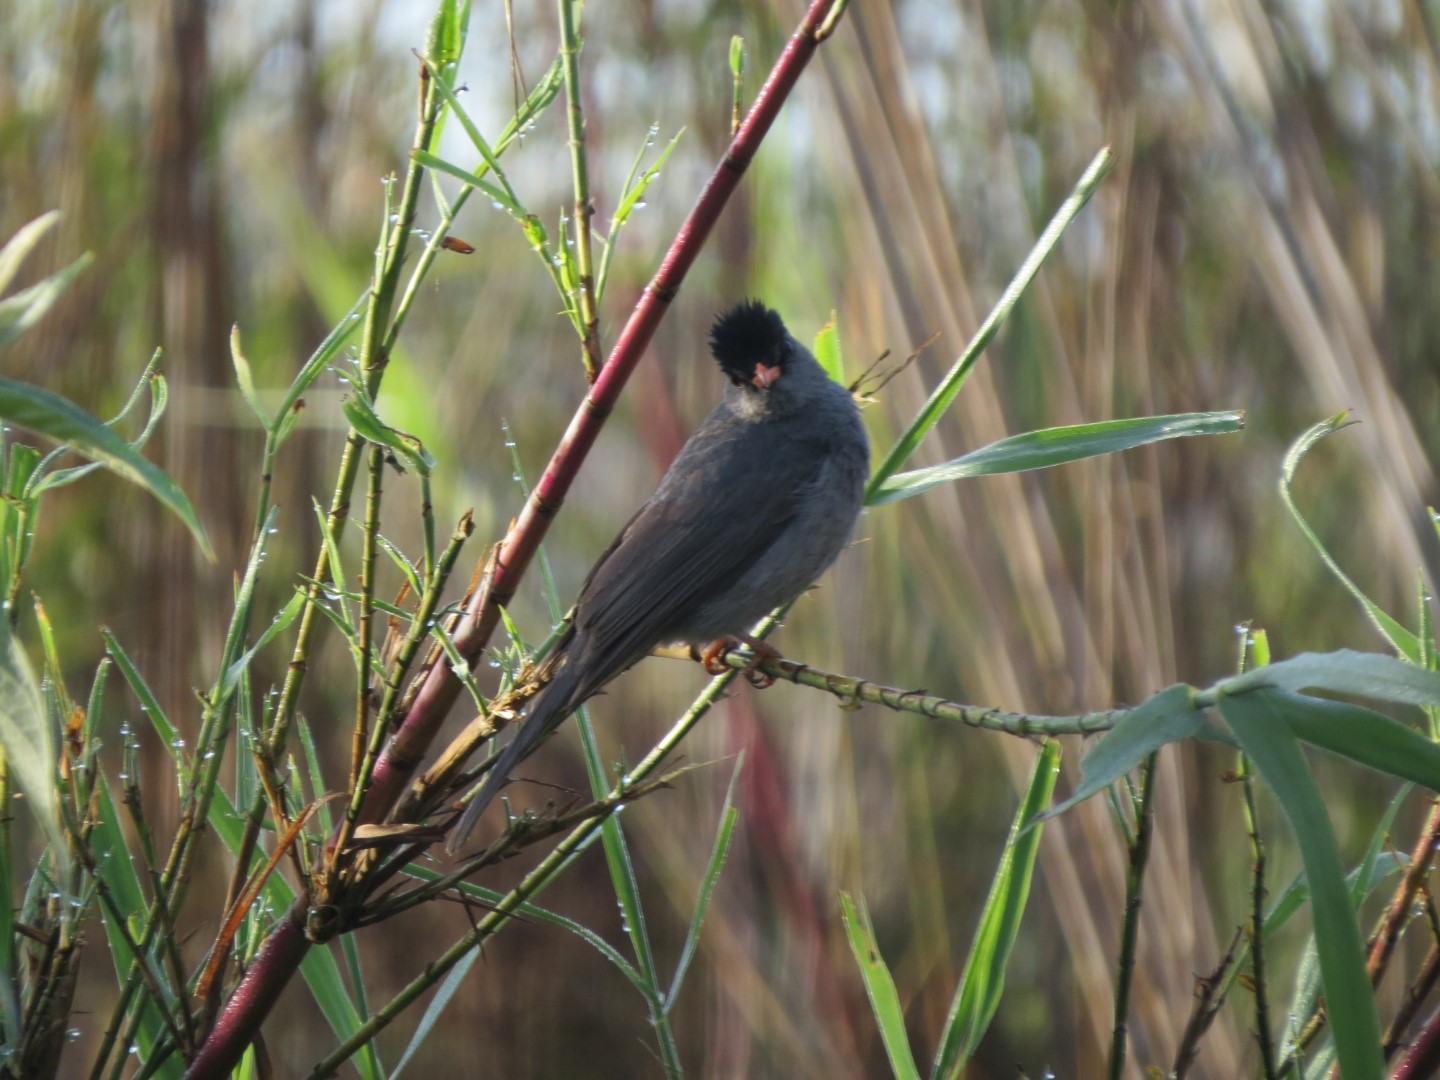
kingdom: Animalia
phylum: Chordata
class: Aves
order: Passeriformes
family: Pycnonotidae
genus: Hypsipetes
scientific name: Hypsipetes madagascariensis
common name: Malagasy bulbul
